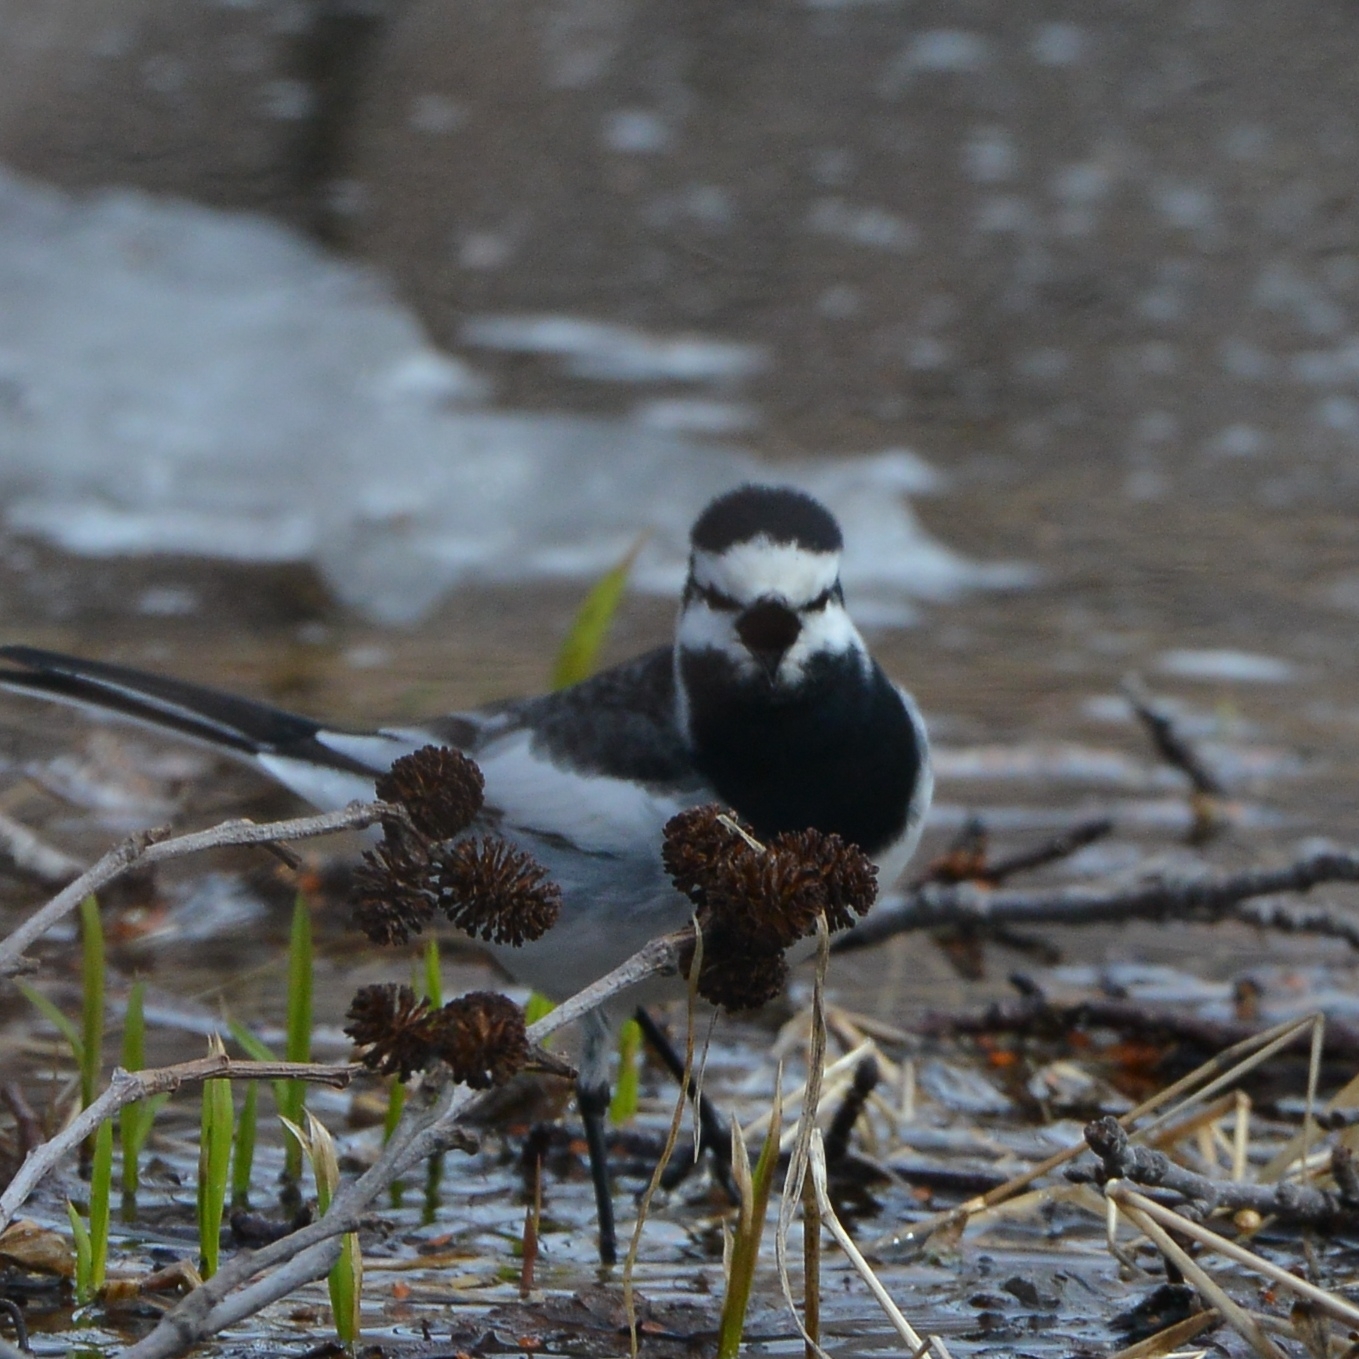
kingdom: Animalia
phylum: Chordata
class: Aves
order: Passeriformes
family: Motacillidae
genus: Motacilla
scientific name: Motacilla alba
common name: White wagtail
